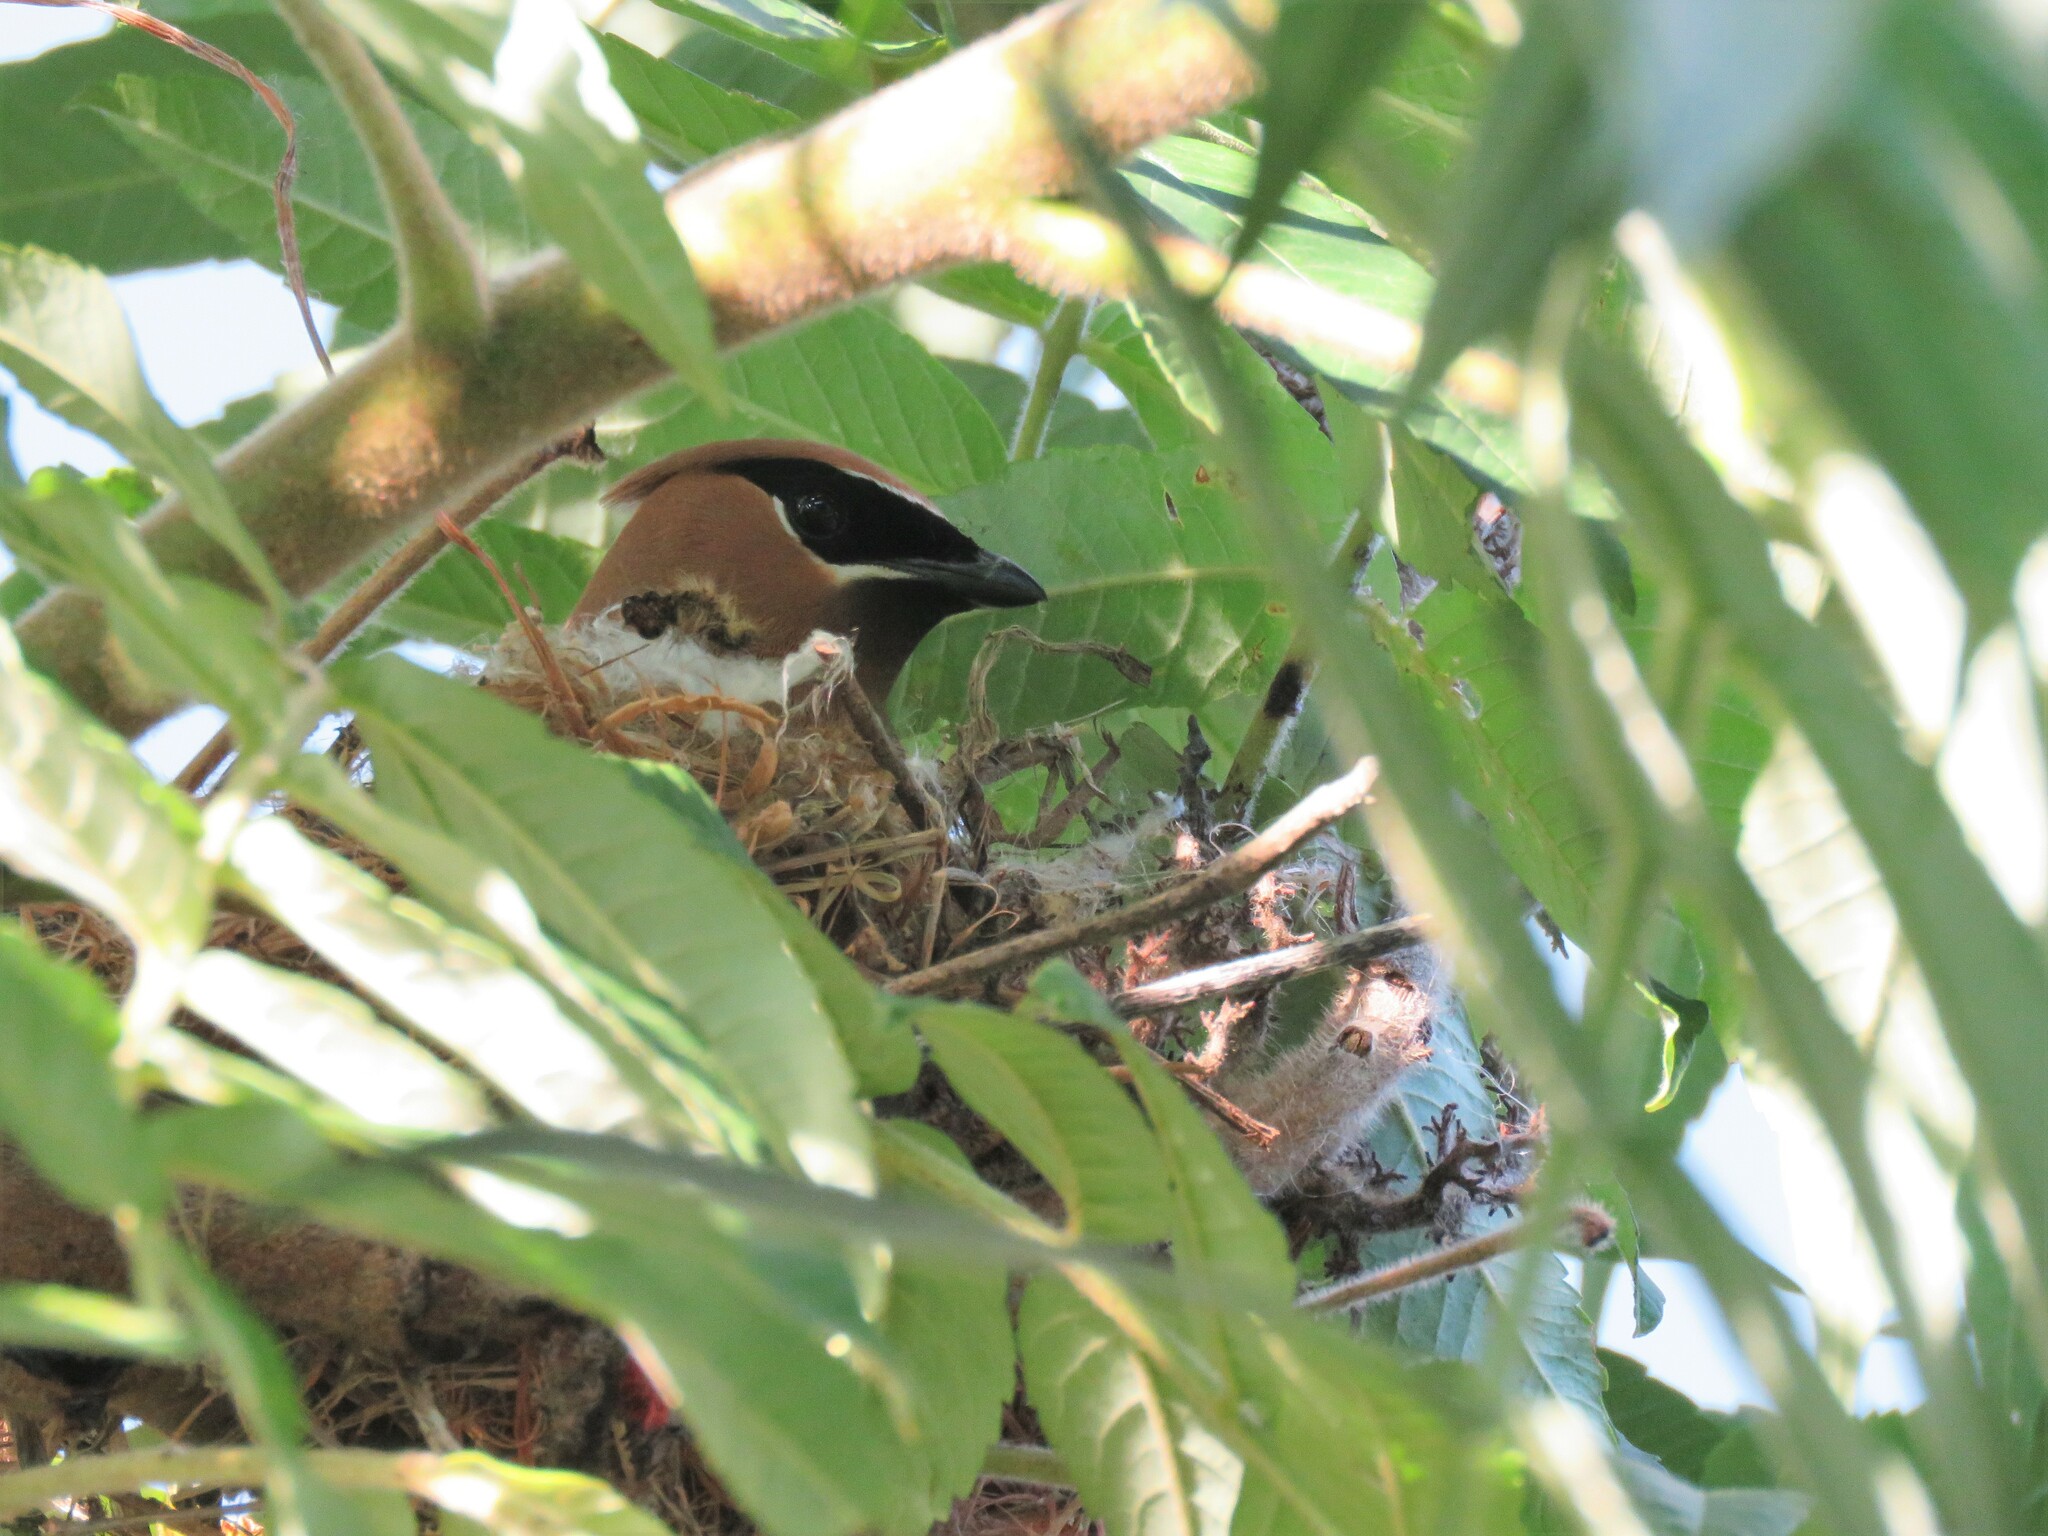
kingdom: Animalia
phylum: Chordata
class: Aves
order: Passeriformes
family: Bombycillidae
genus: Bombycilla
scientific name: Bombycilla cedrorum
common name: Cedar waxwing
